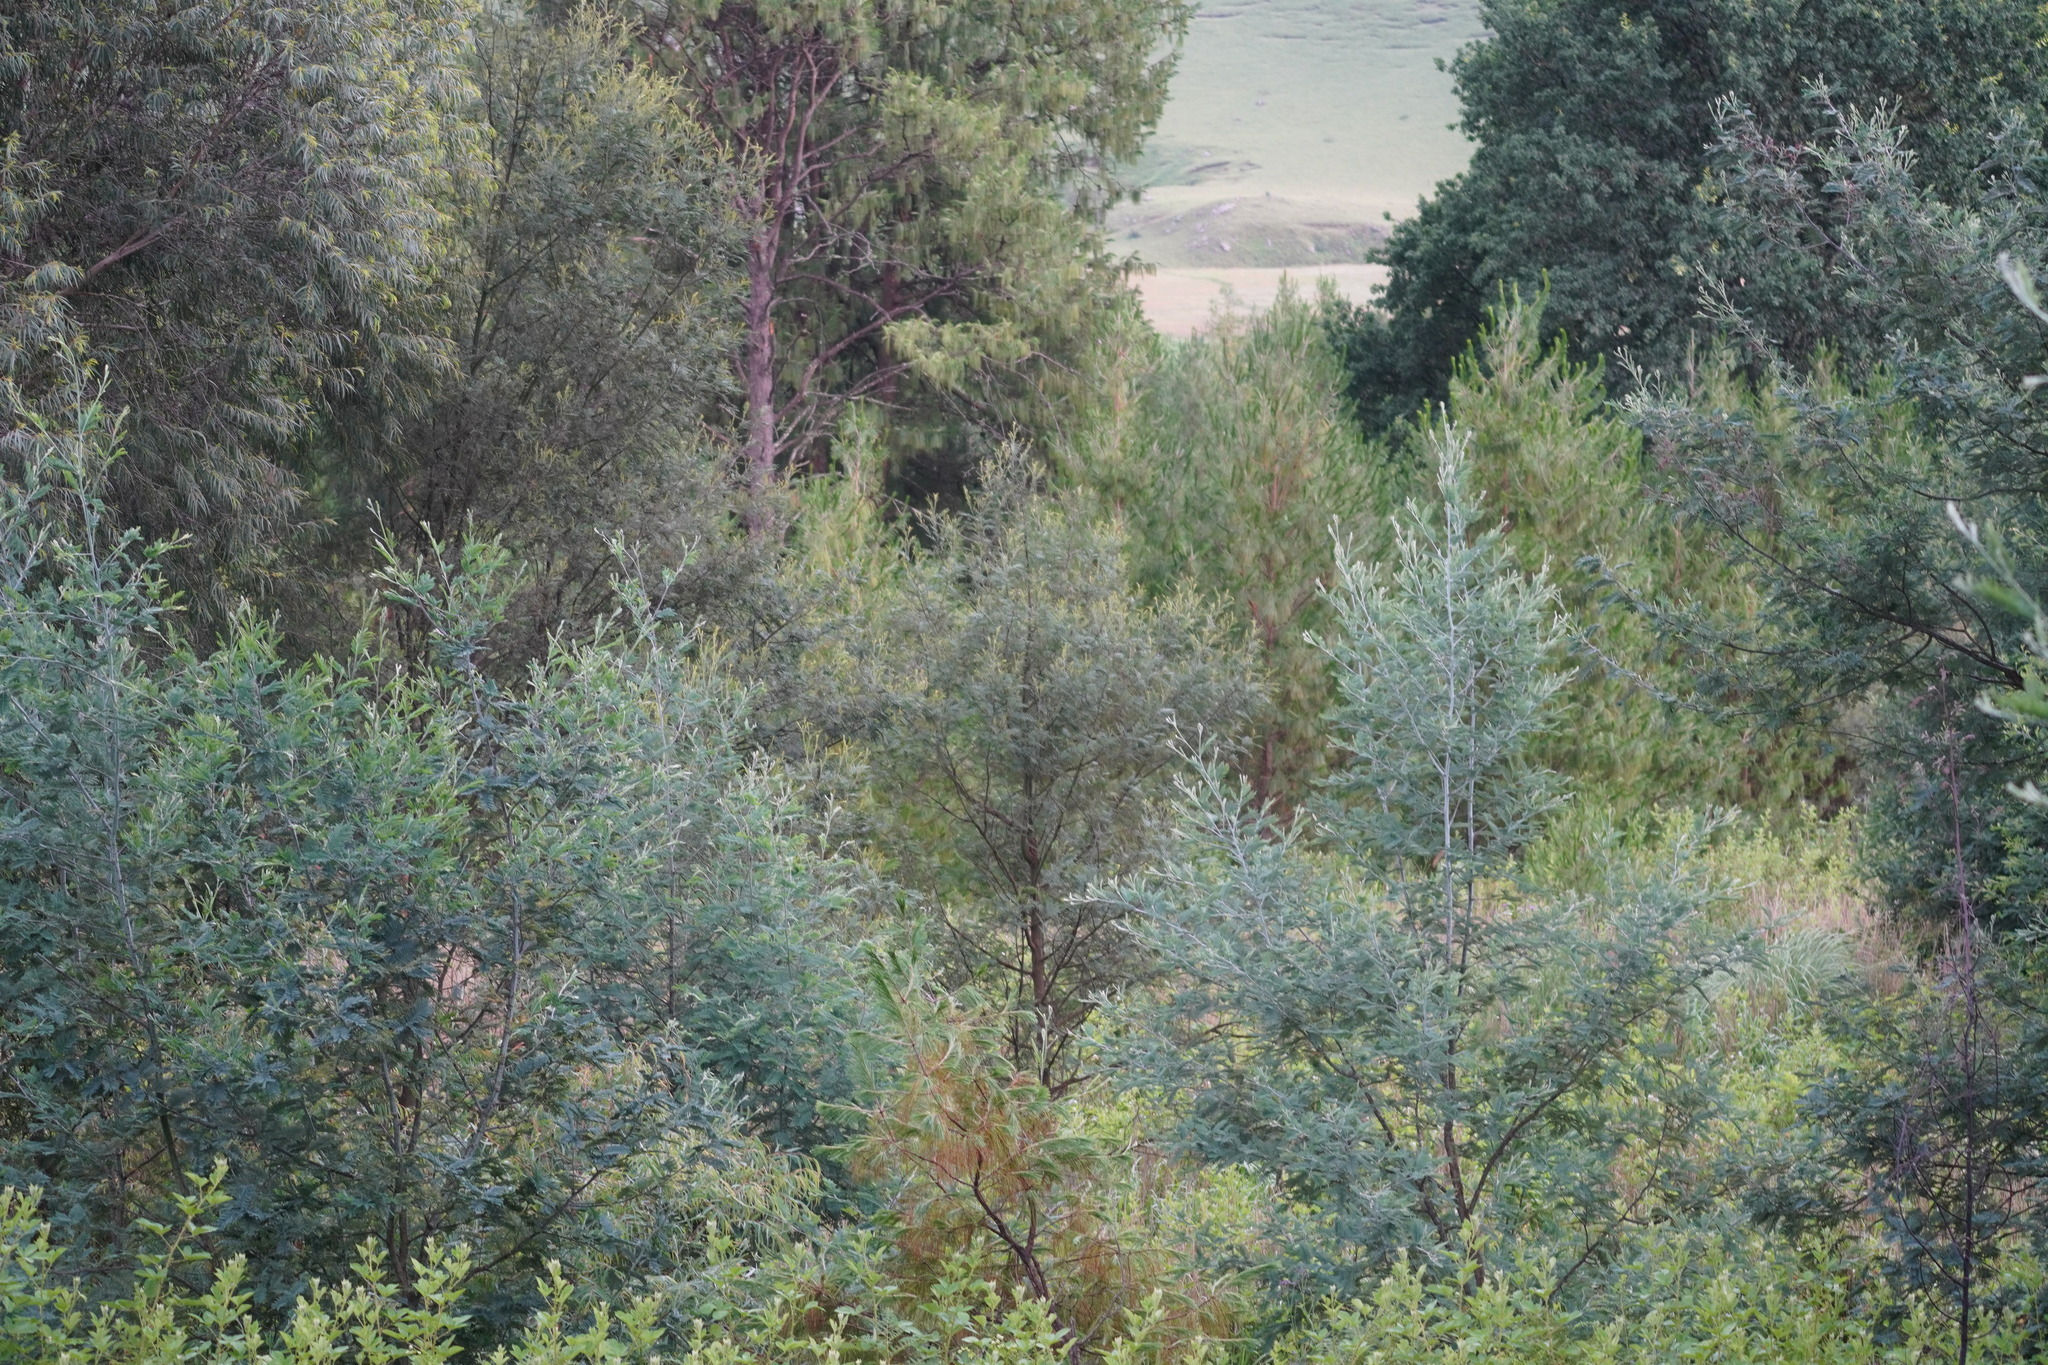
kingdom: Plantae
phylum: Tracheophyta
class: Magnoliopsida
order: Fabales
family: Fabaceae
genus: Acacia
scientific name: Acacia dealbata
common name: Silver wattle
